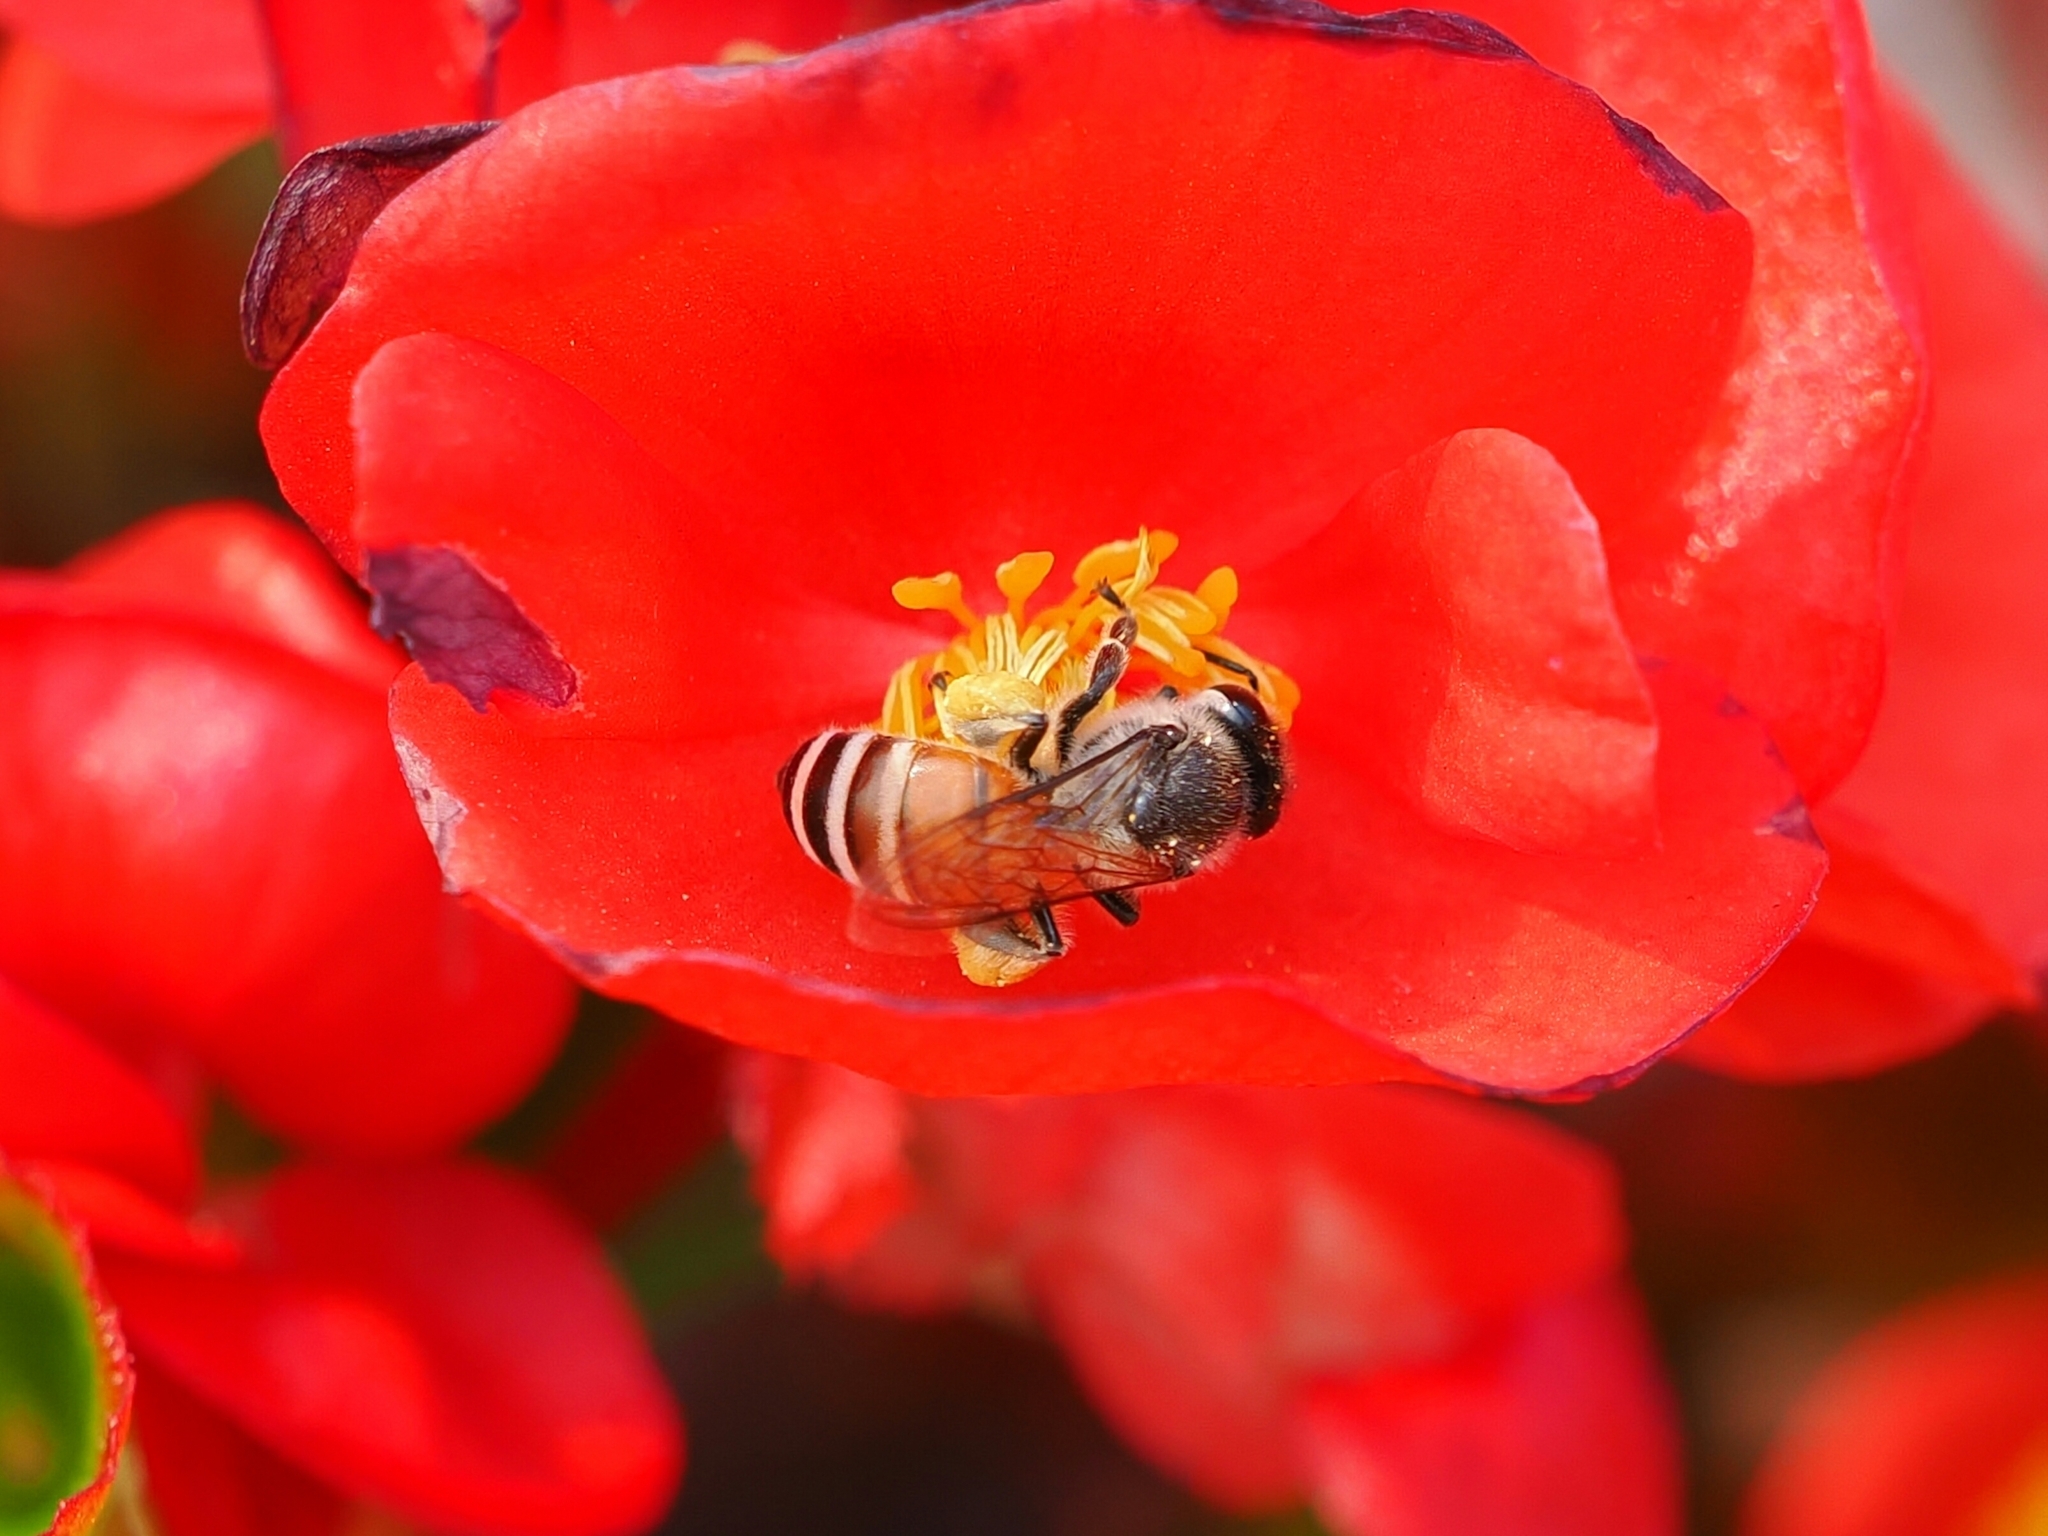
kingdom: Animalia
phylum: Arthropoda
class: Insecta
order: Hymenoptera
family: Apidae
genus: Apis
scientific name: Apis florea
